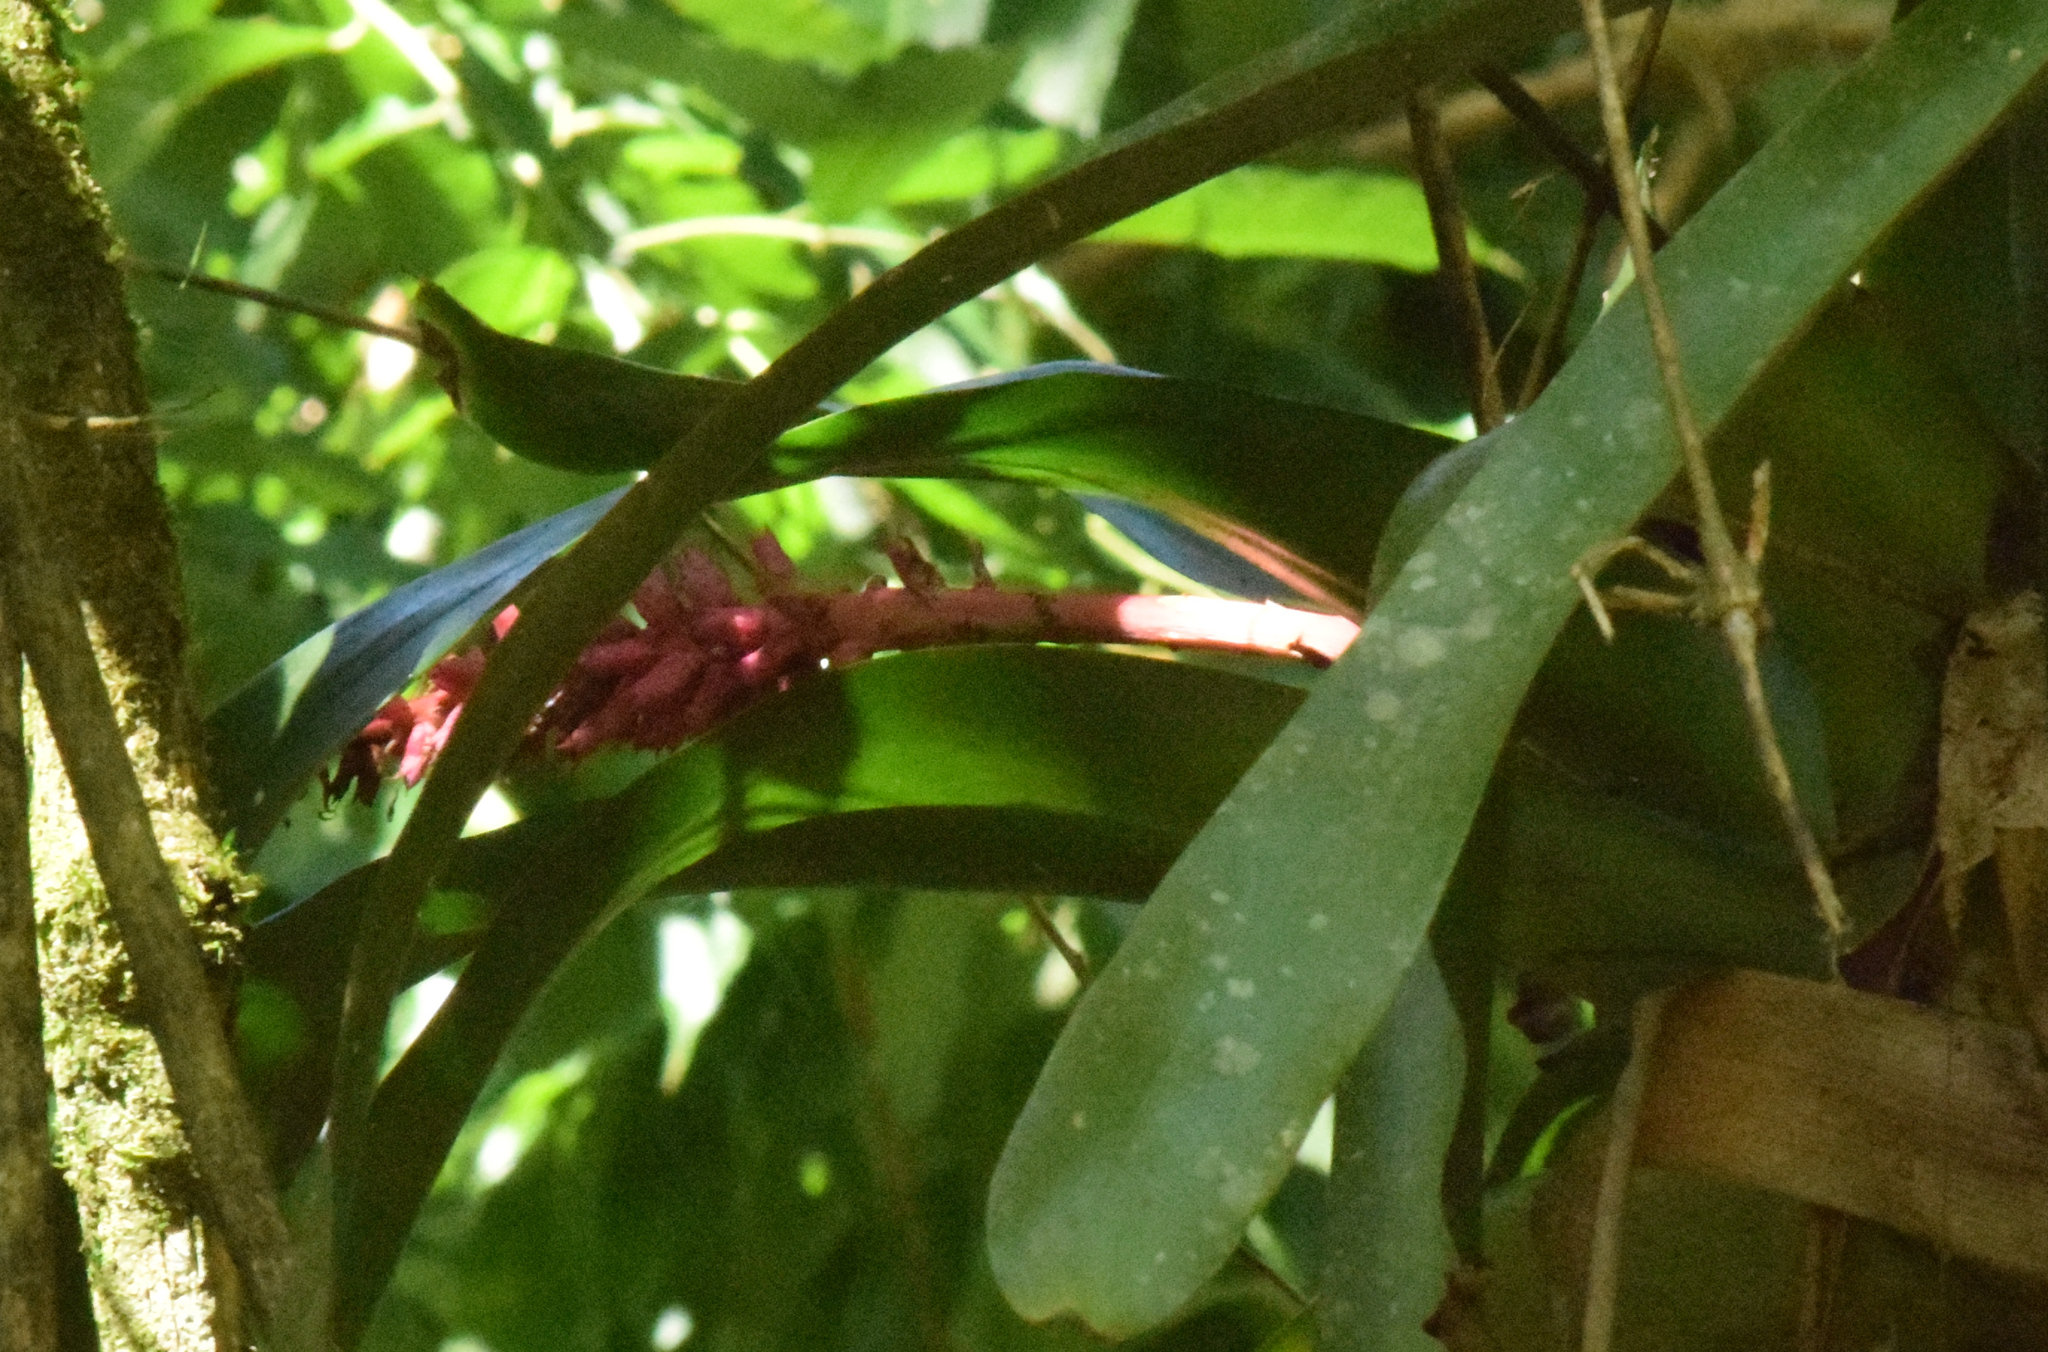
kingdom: Plantae
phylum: Tracheophyta
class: Liliopsida
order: Poales
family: Bromeliaceae
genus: Aechmea
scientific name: Aechmea cylindrata
